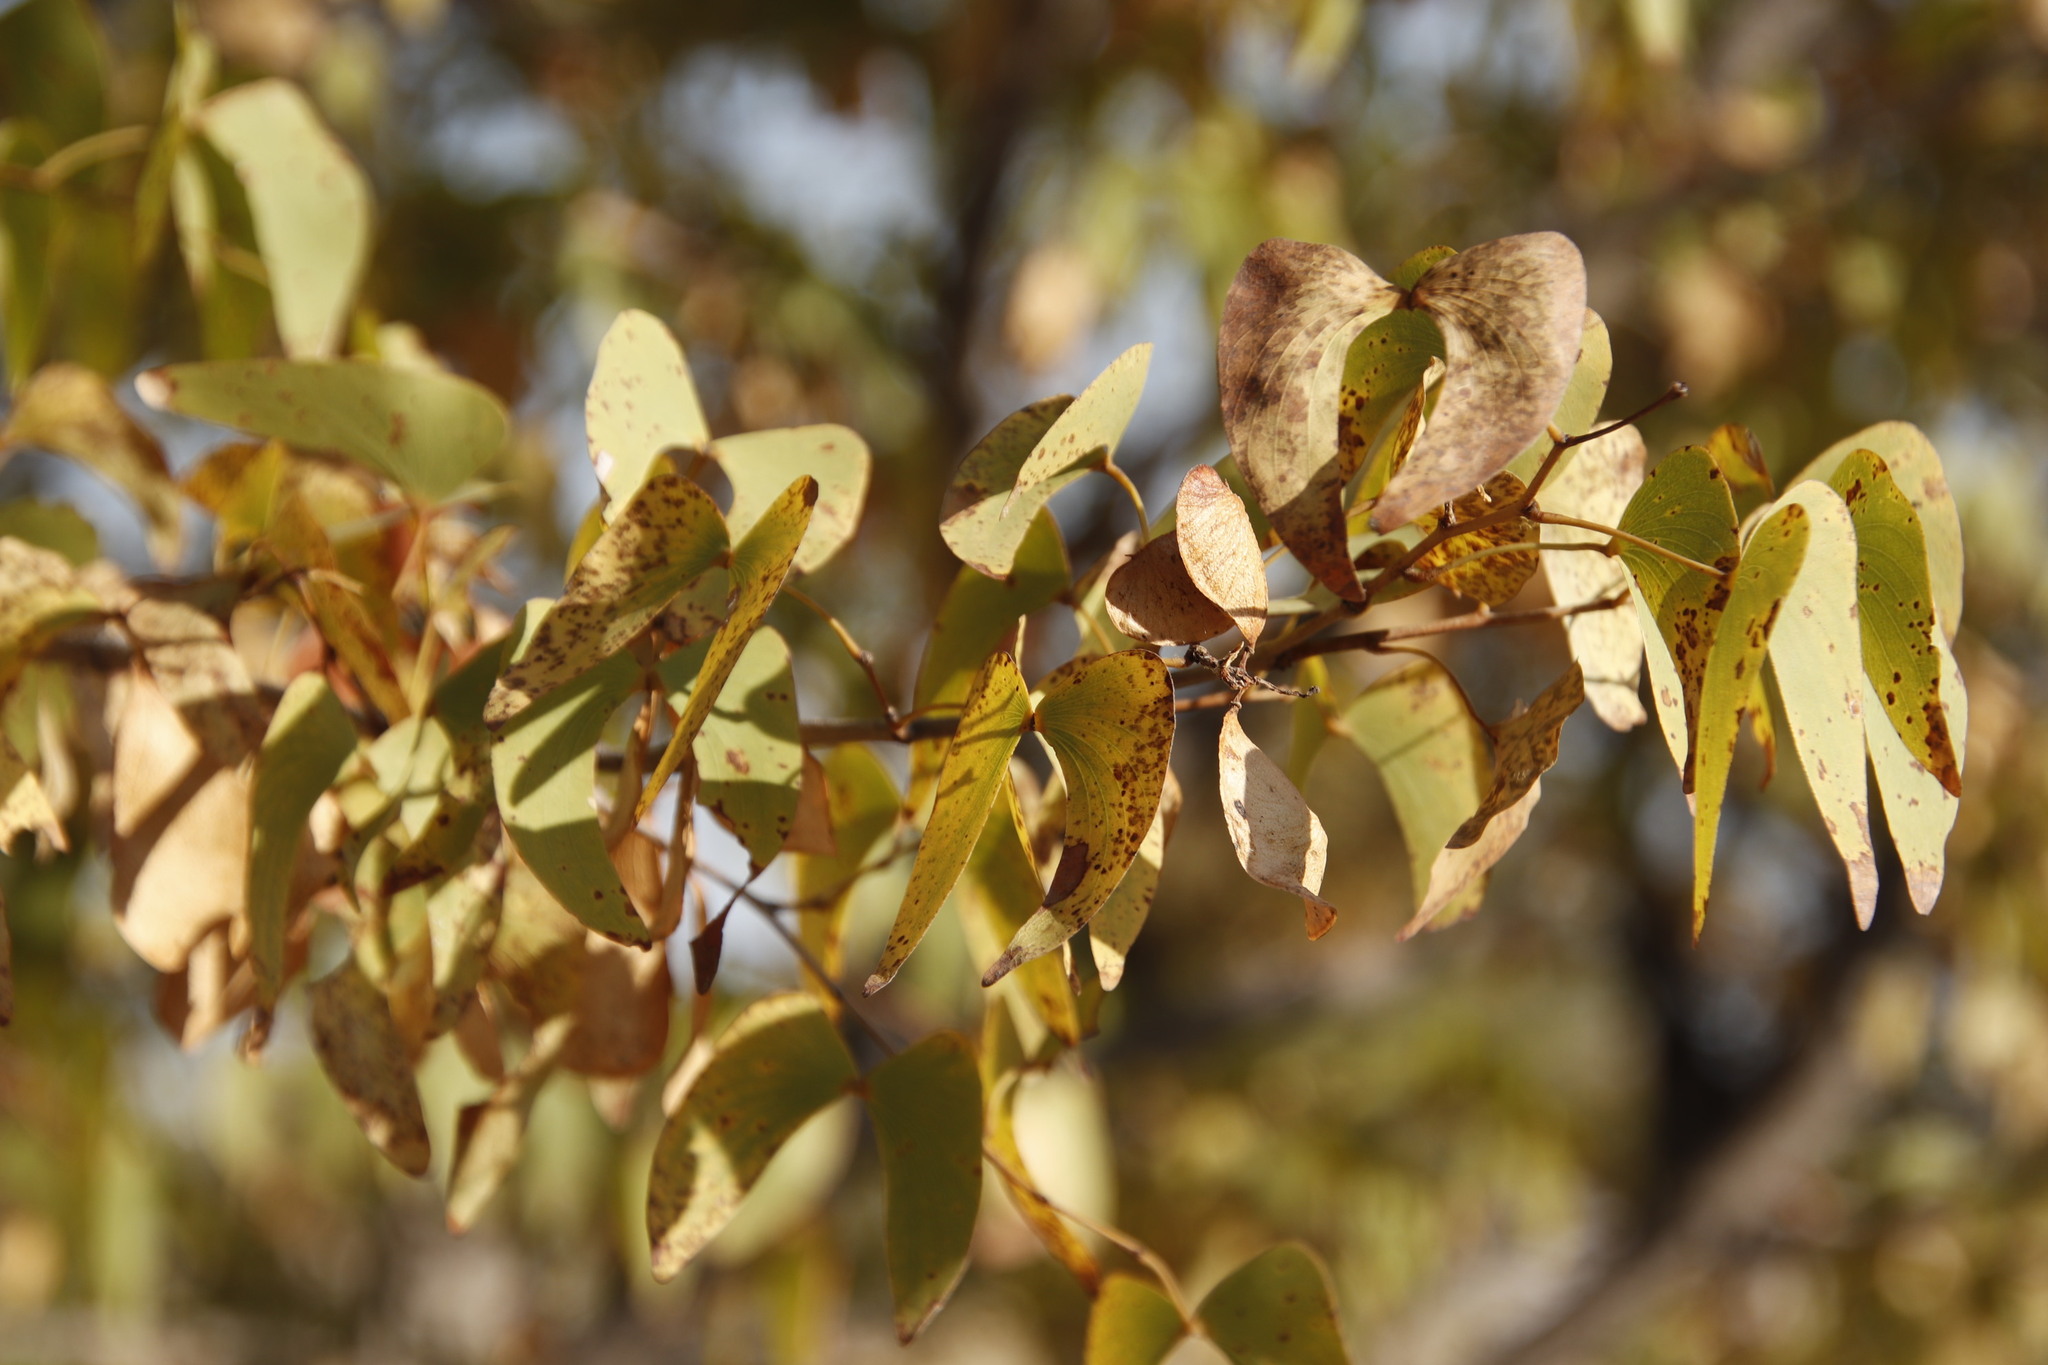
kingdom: Plantae
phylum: Tracheophyta
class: Magnoliopsida
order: Fabales
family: Fabaceae
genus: Colophospermum
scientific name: Colophospermum mopane
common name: Mopane
